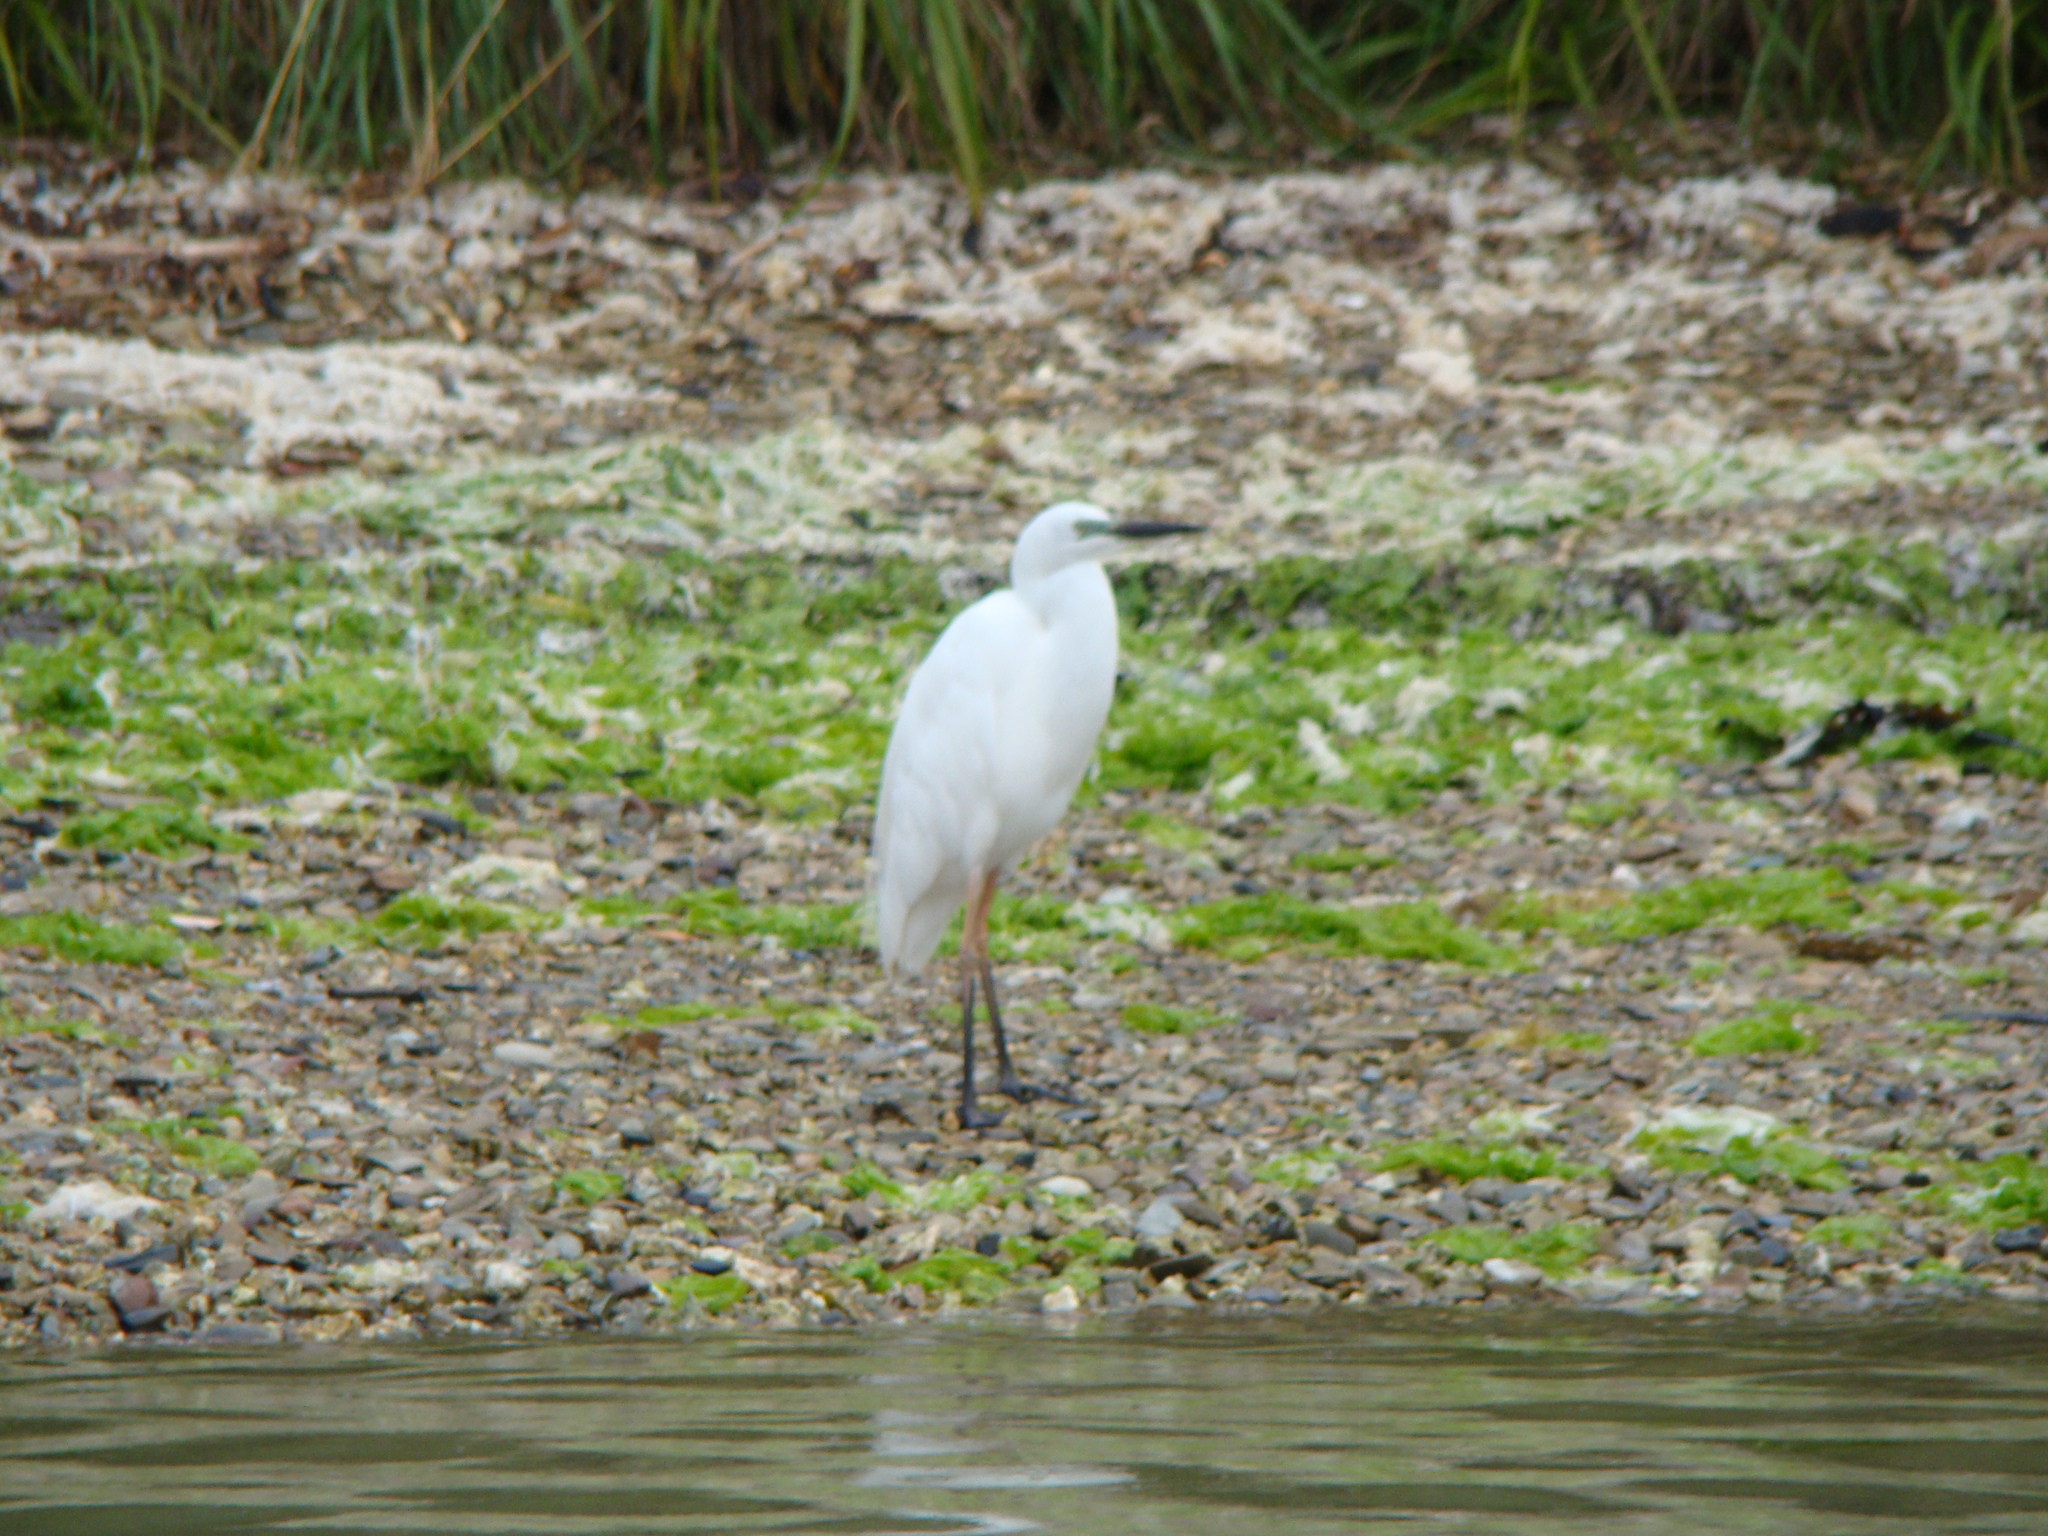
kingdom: Animalia
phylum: Chordata
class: Aves
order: Pelecaniformes
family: Ardeidae
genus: Ardea
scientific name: Ardea modesta
